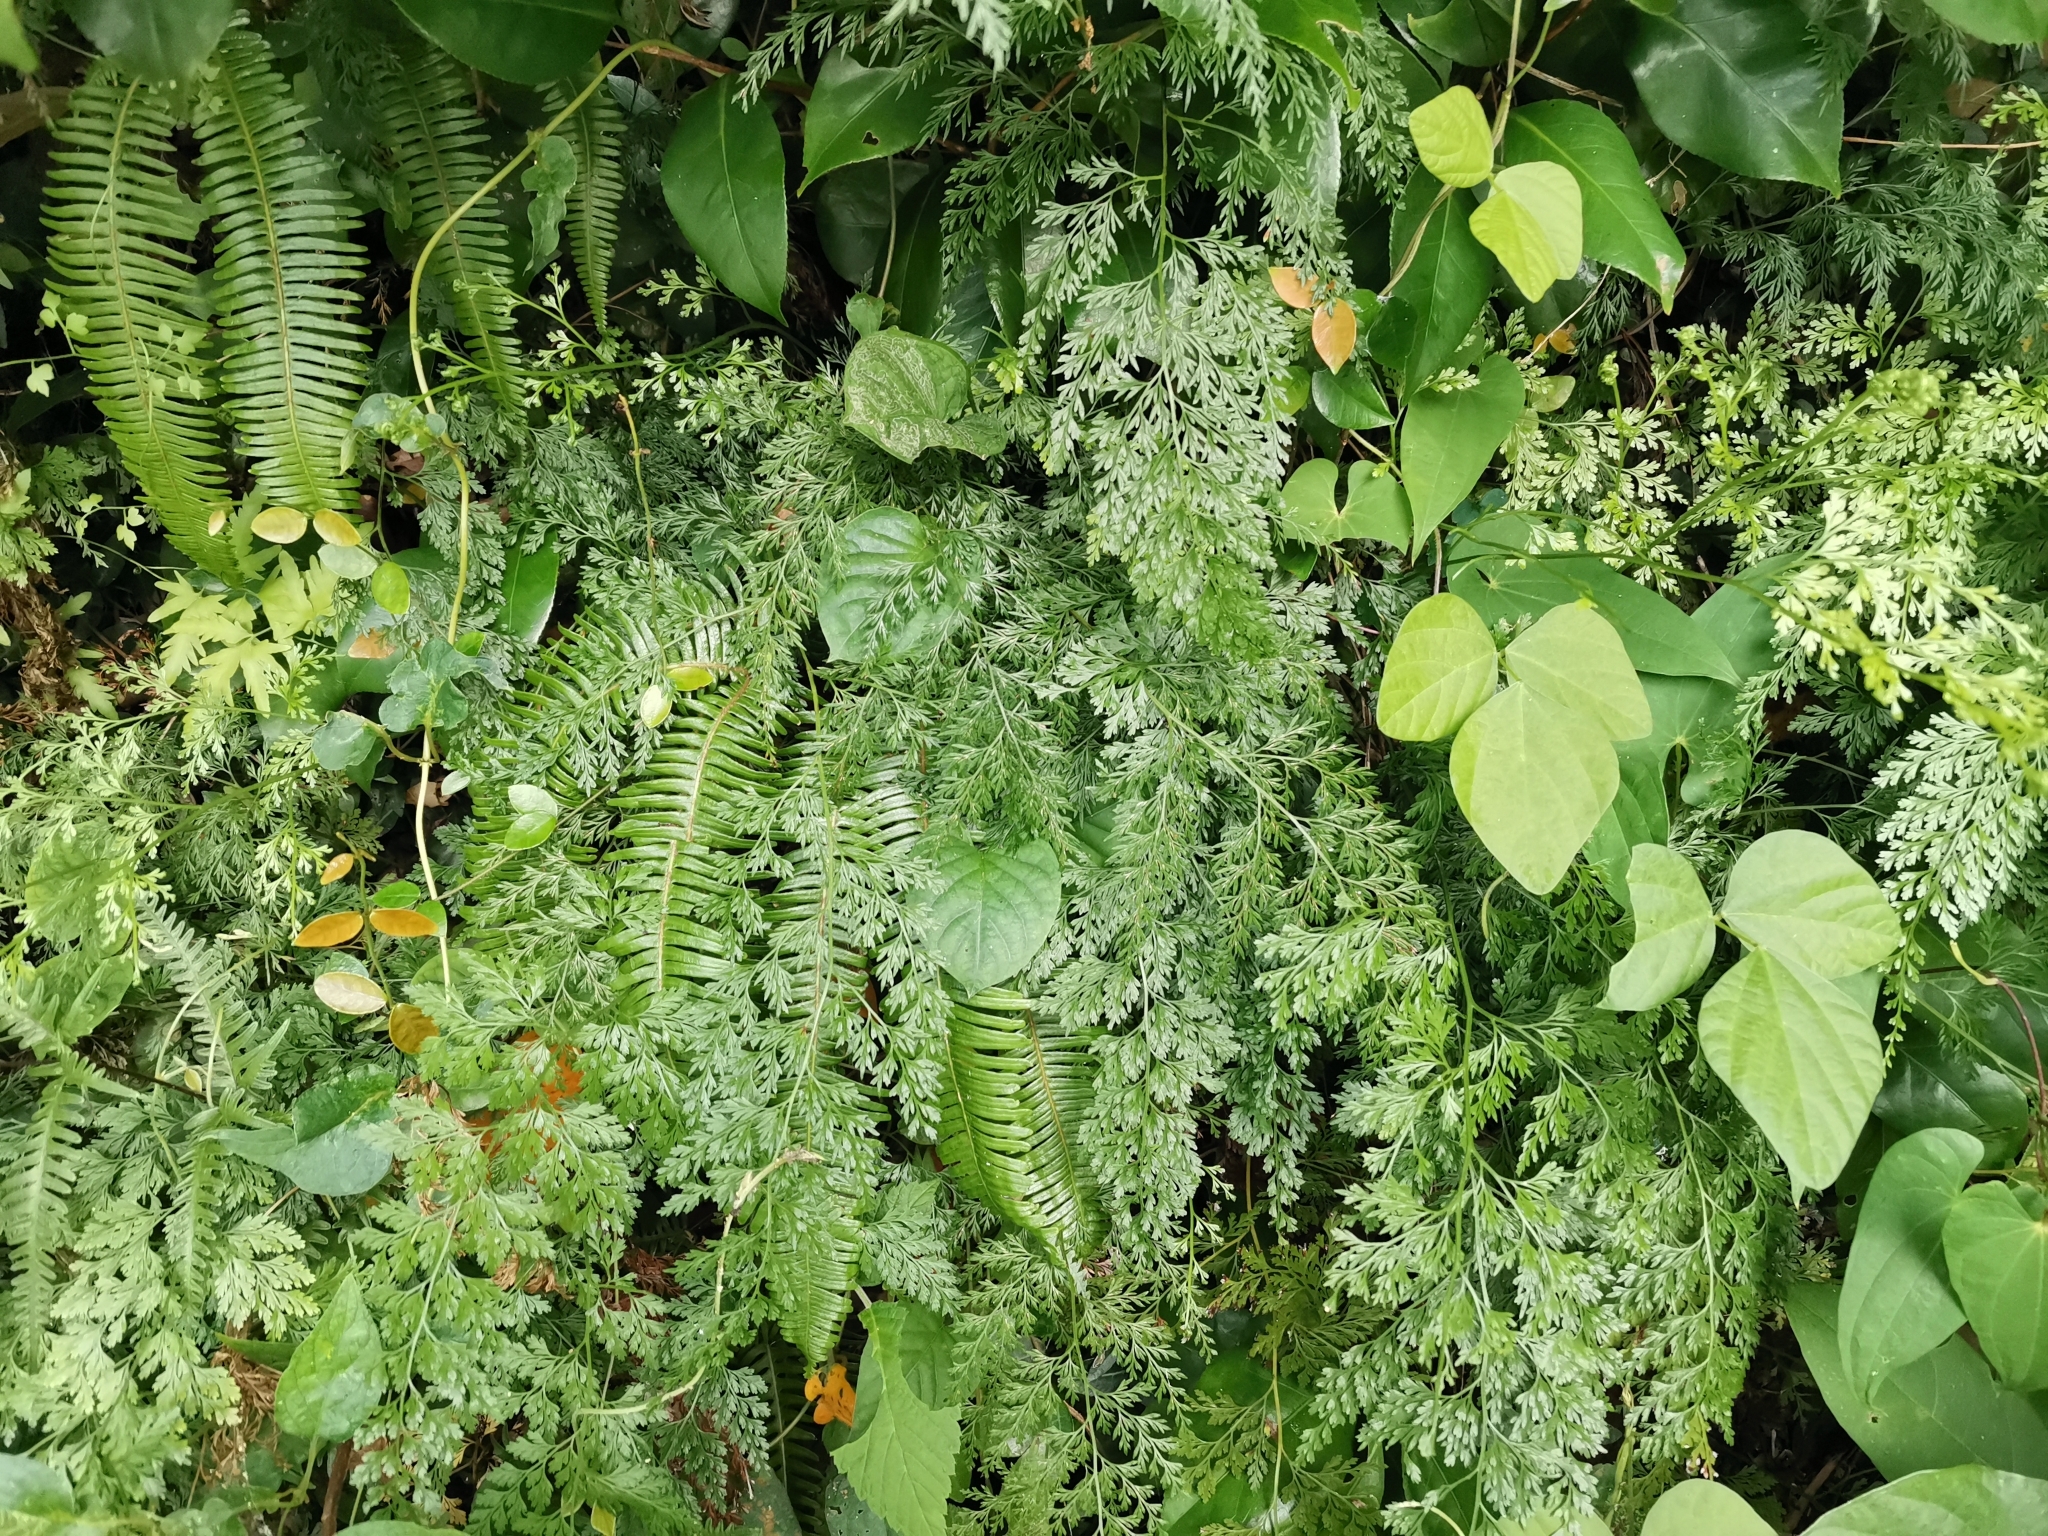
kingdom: Plantae
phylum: Tracheophyta
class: Polypodiopsida
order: Polypodiales
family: Pteridaceae
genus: Onychium
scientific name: Onychium japonicum
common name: Carrot fern
